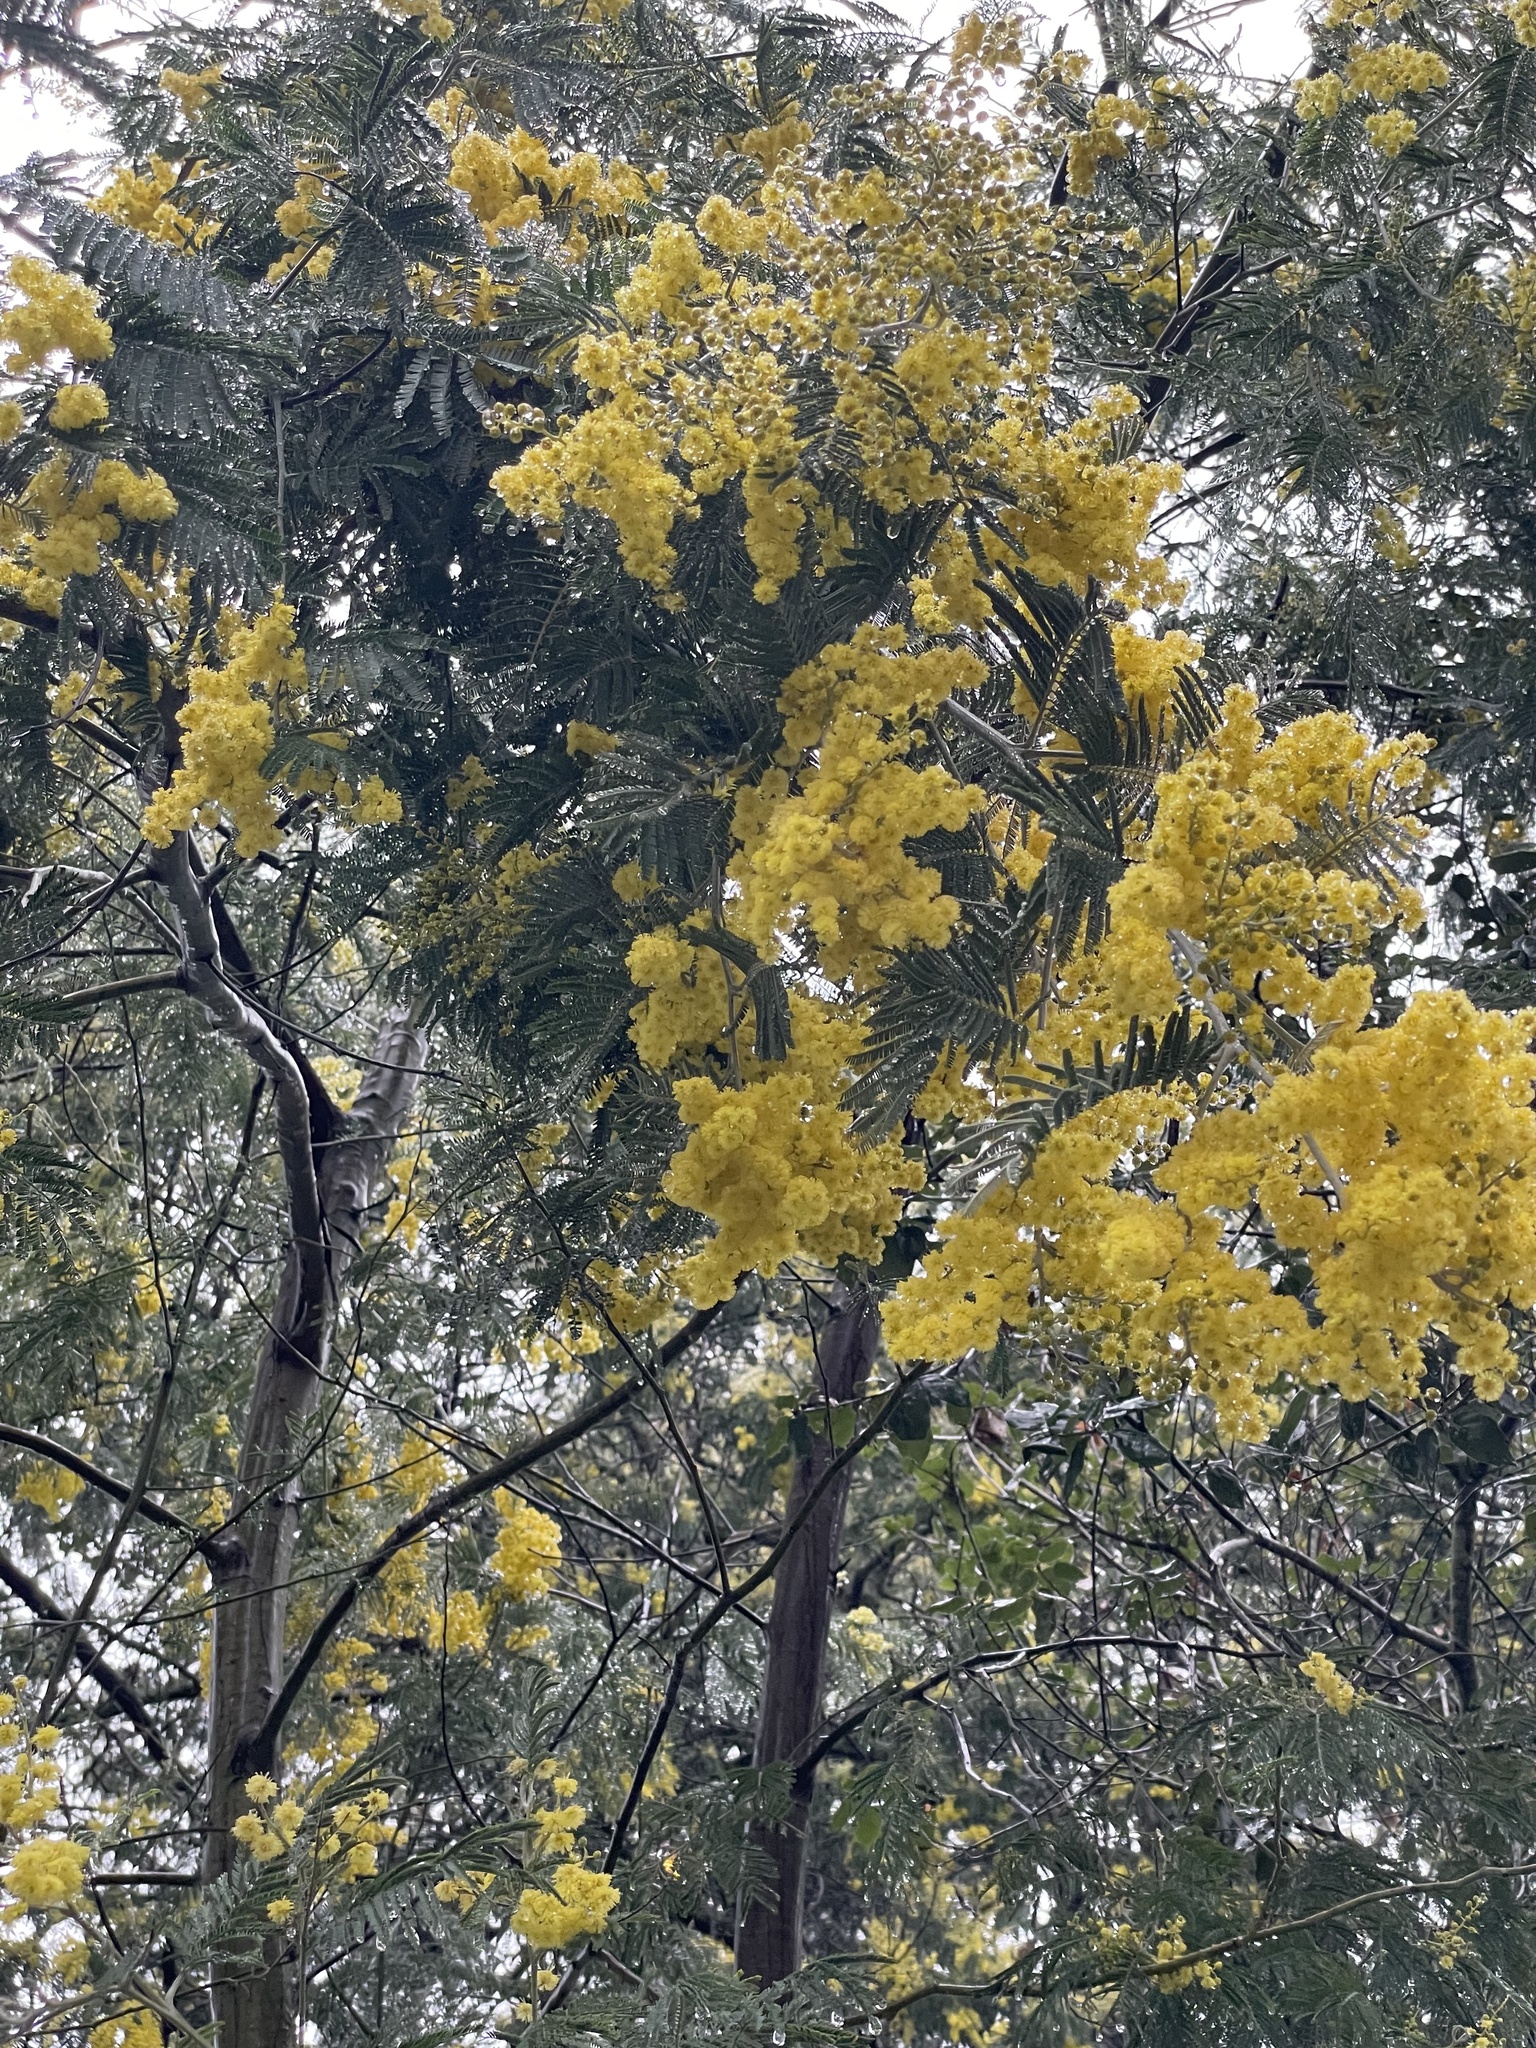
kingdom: Plantae
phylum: Tracheophyta
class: Magnoliopsida
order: Fabales
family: Fabaceae
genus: Acacia
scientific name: Acacia dealbata
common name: Silver wattle
